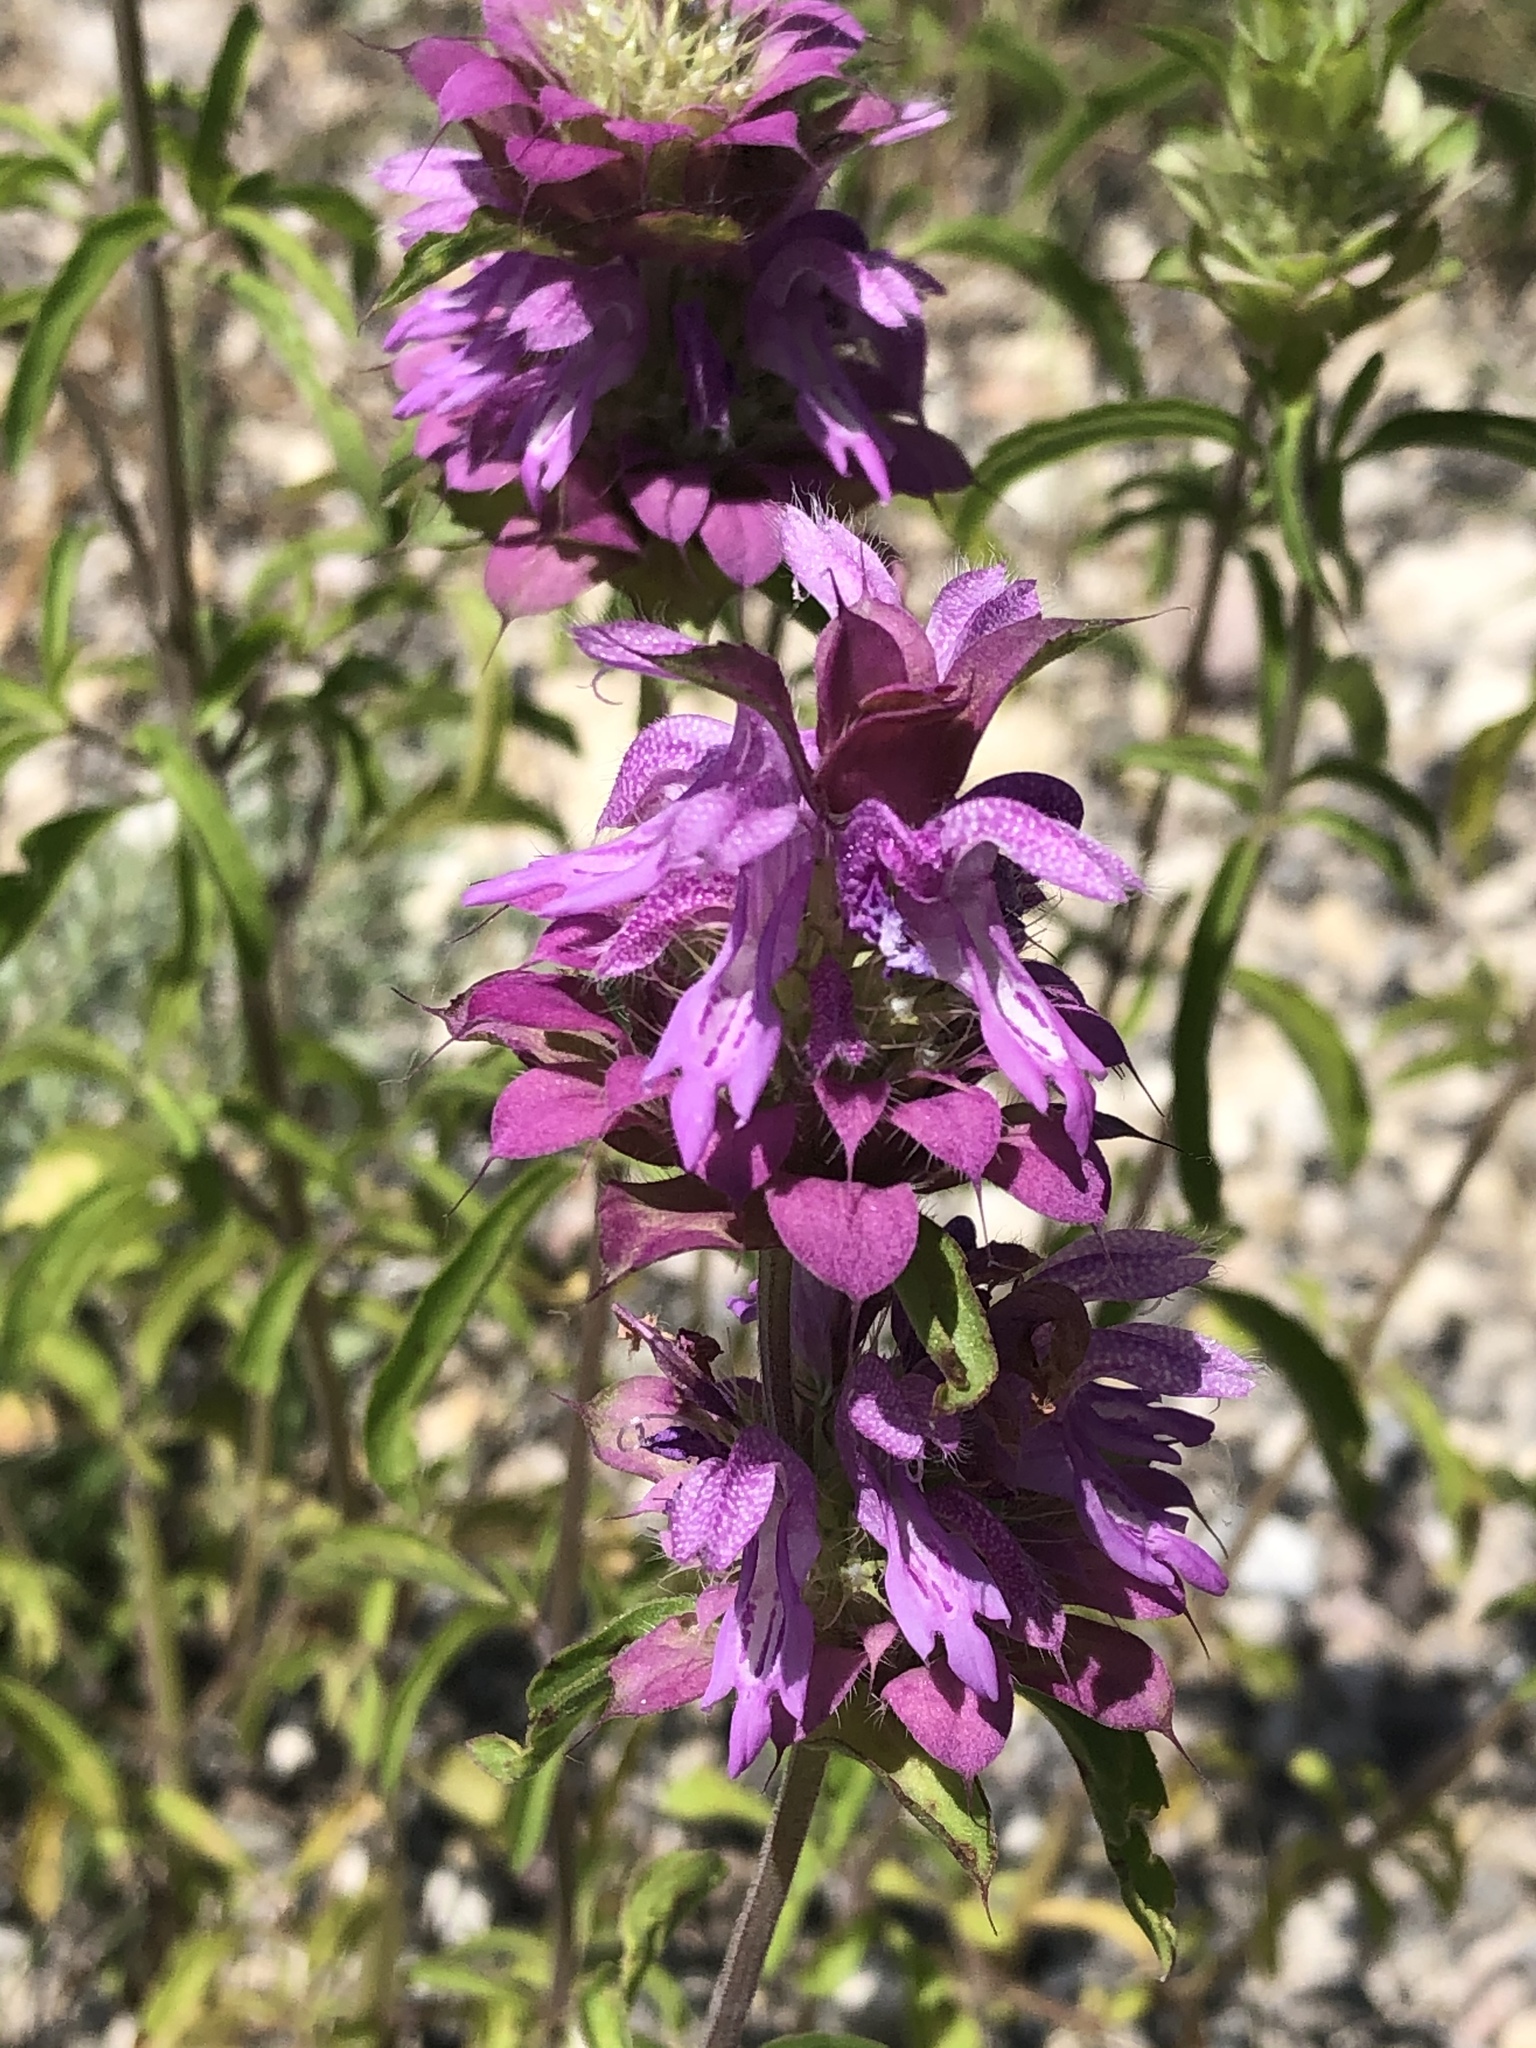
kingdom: Plantae
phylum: Tracheophyta
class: Magnoliopsida
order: Lamiales
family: Lamiaceae
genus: Monarda
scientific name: Monarda citriodora
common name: Lemon beebalm
